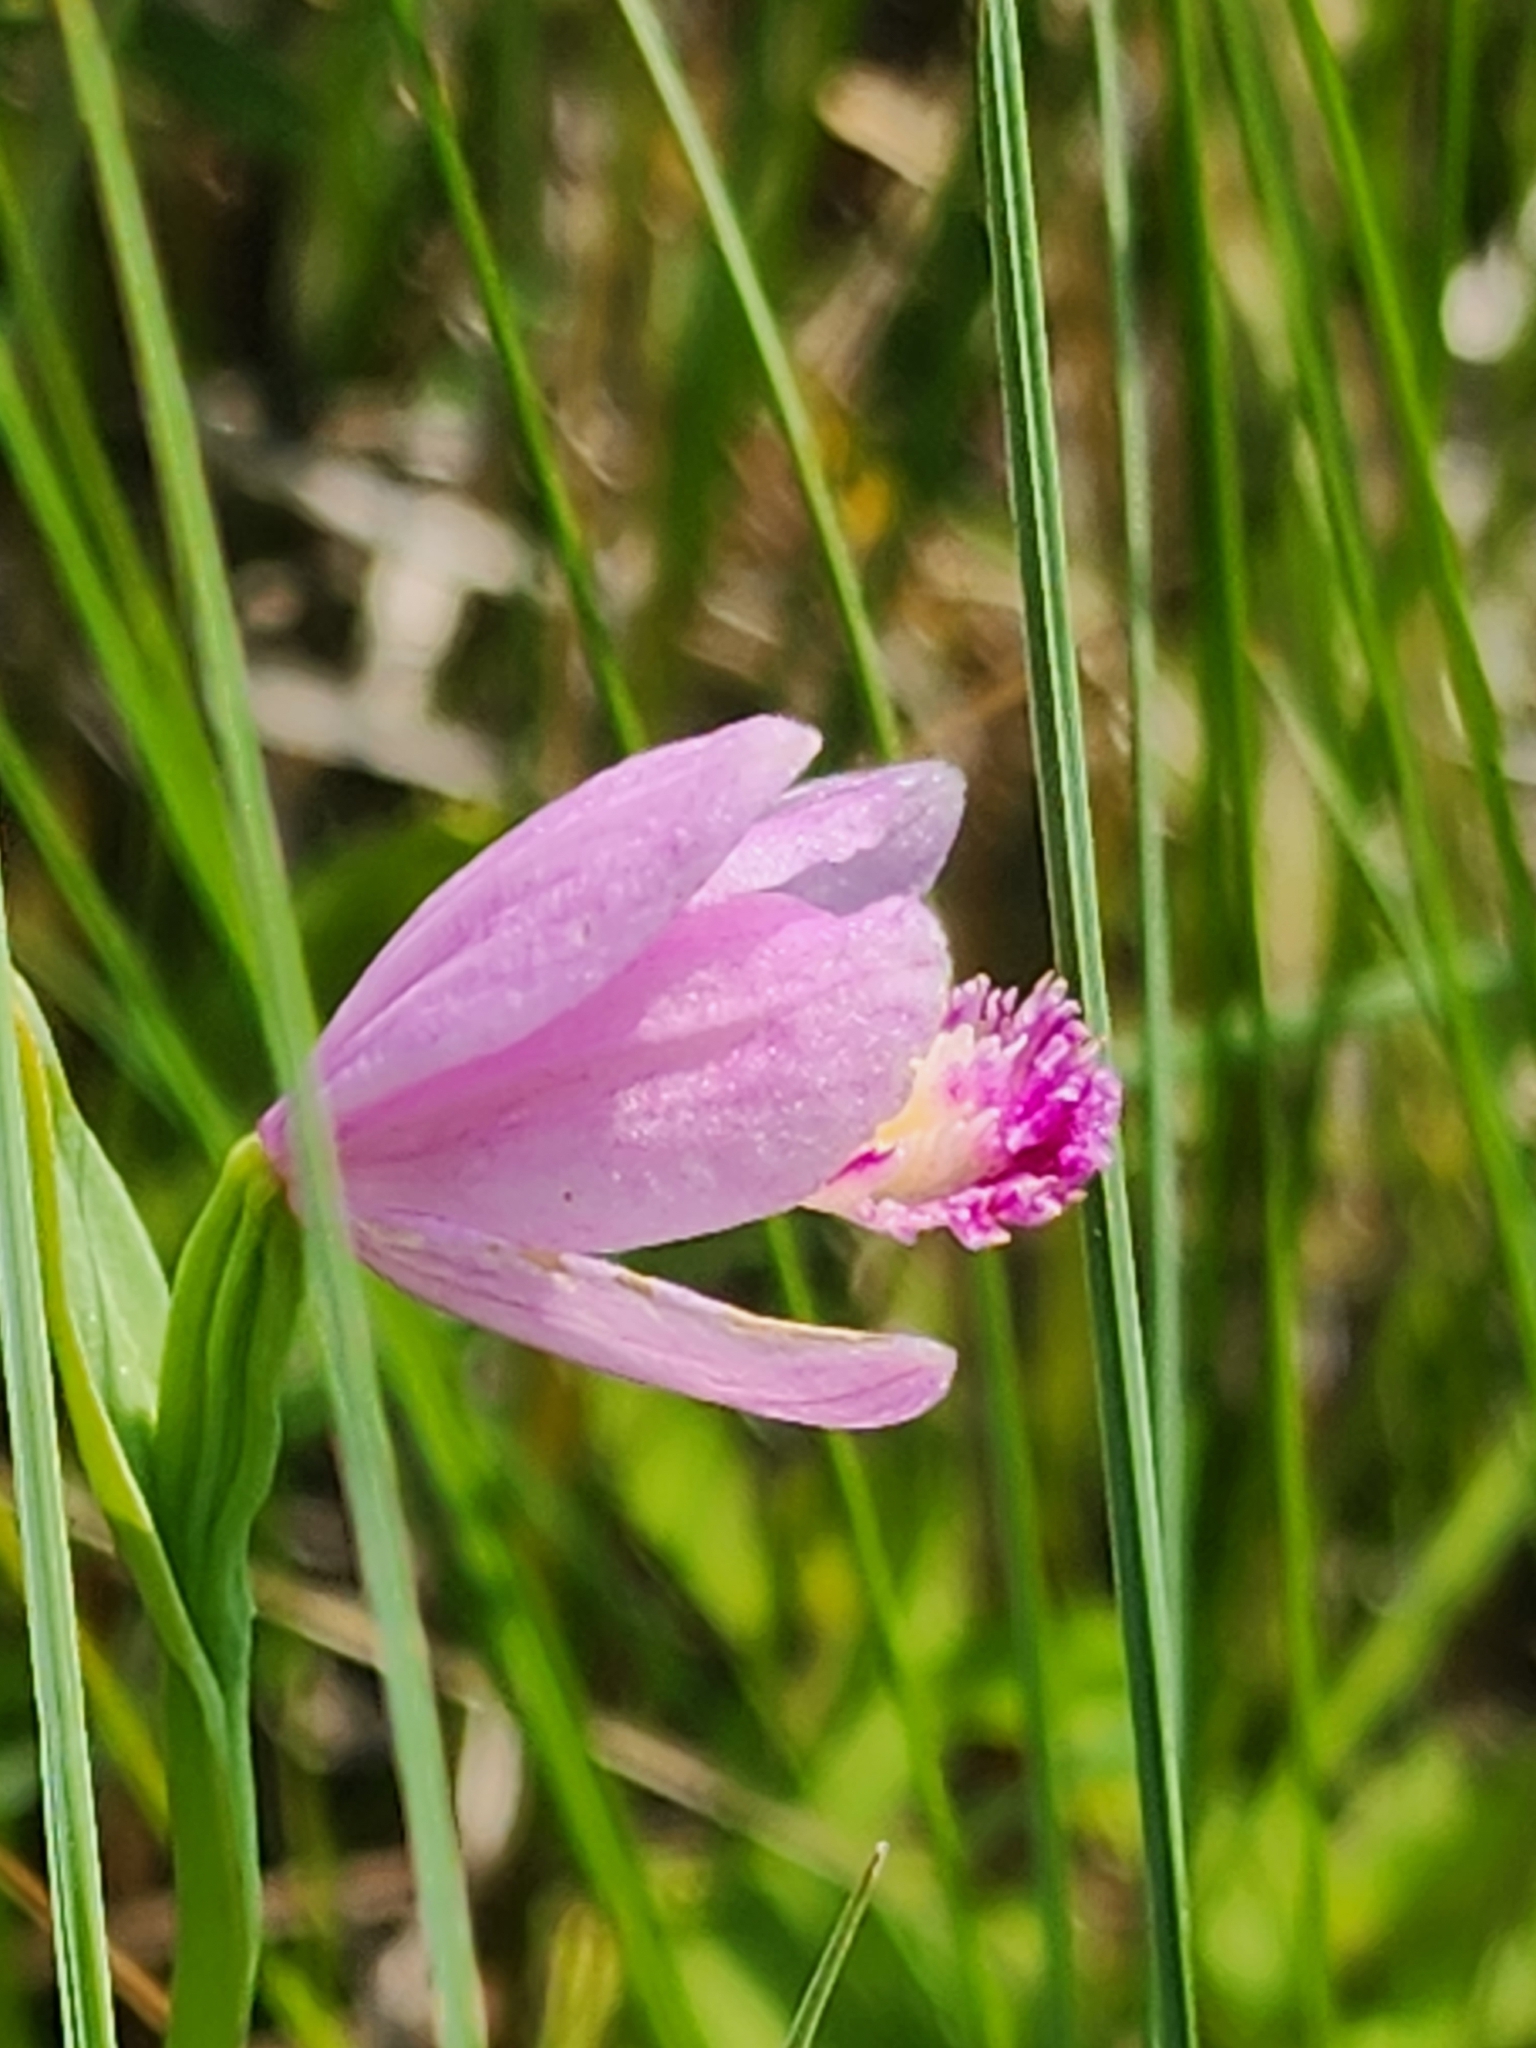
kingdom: Plantae
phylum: Tracheophyta
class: Liliopsida
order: Asparagales
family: Orchidaceae
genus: Pogonia
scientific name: Pogonia ophioglossoides
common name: Rose pogonia
